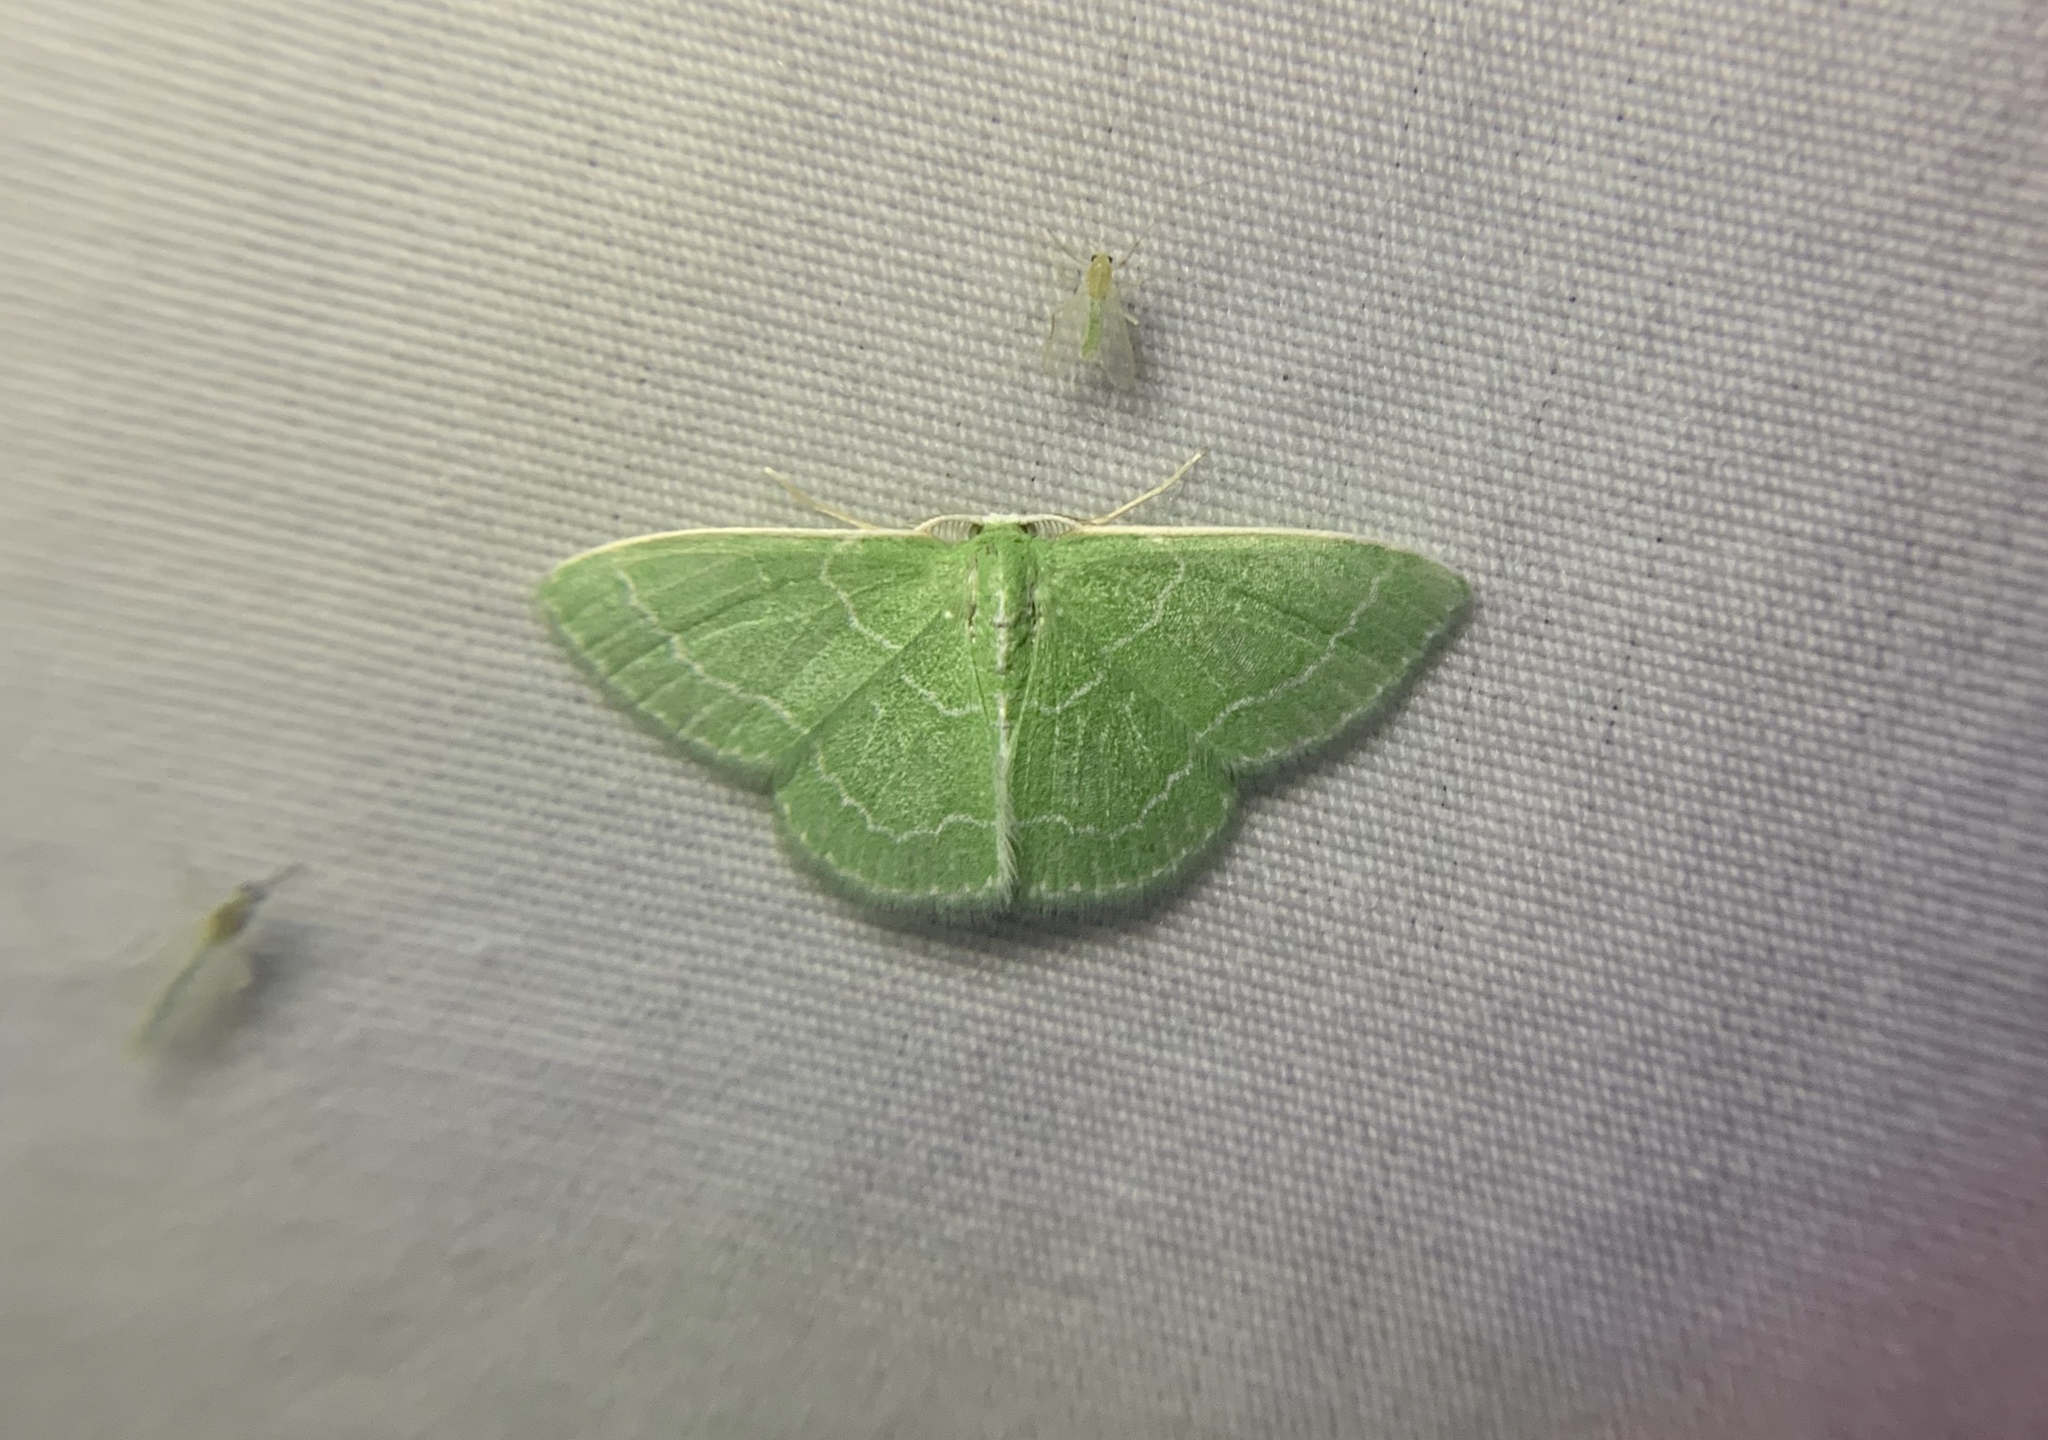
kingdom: Animalia
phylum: Arthropoda
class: Insecta
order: Lepidoptera
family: Geometridae
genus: Synchlora
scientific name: Synchlora aerata
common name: Wavy-lined emerald
